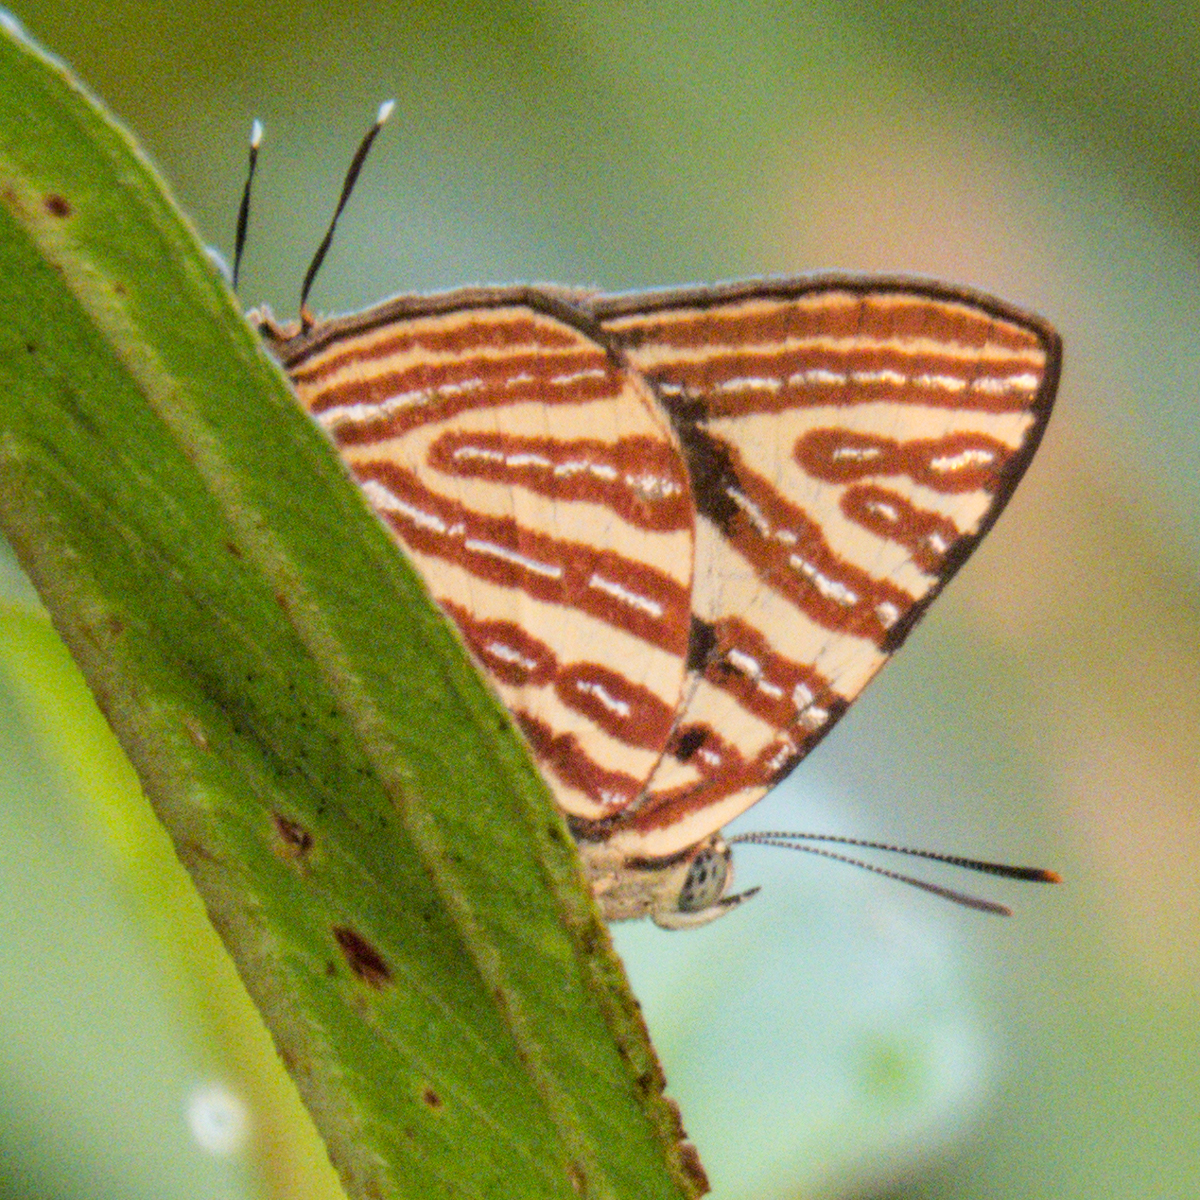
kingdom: Animalia
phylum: Arthropoda
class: Insecta
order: Lepidoptera
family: Lycaenidae
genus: Cigaritis
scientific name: Cigaritis lohita
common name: Long-banded silverline
